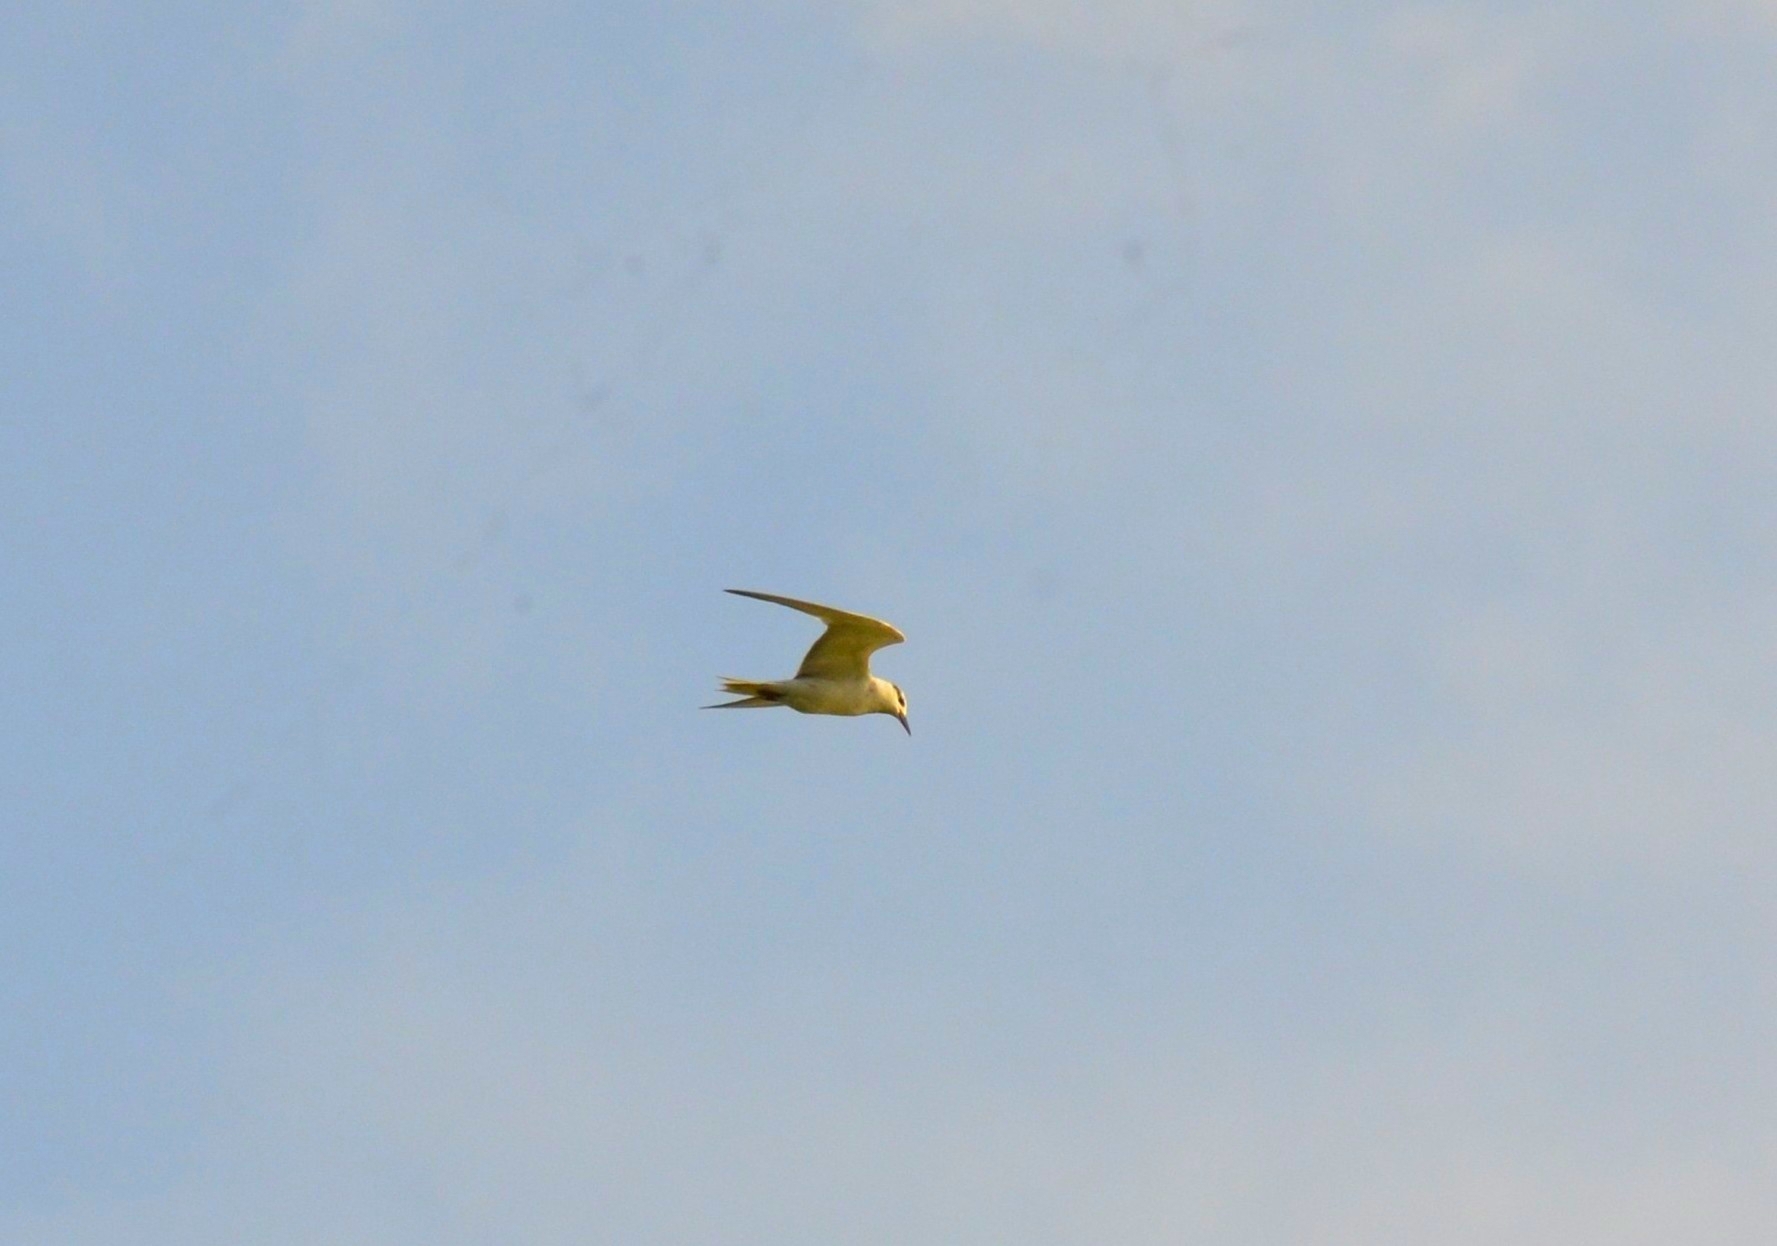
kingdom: Animalia
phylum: Chordata
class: Aves
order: Charadriiformes
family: Laridae
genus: Chlidonias
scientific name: Chlidonias hybrida
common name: Whiskered tern
